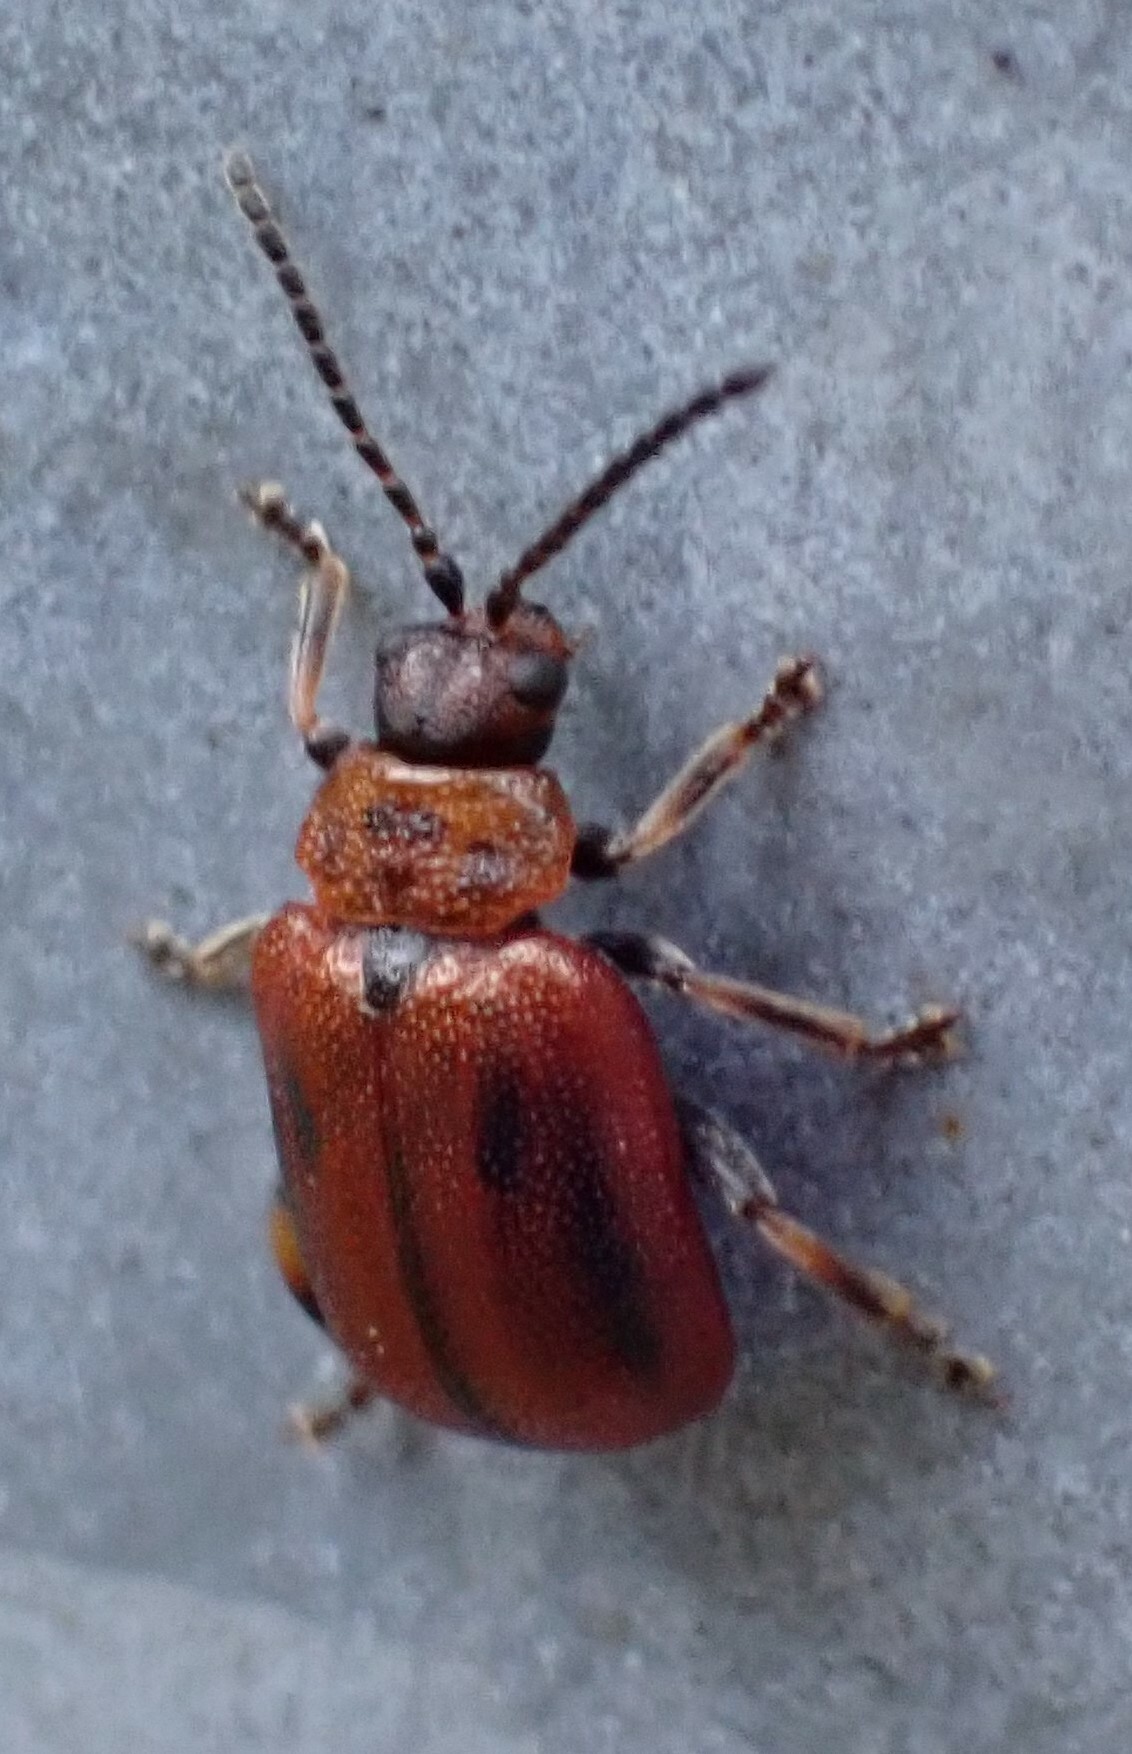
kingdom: Animalia
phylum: Arthropoda
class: Insecta
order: Coleoptera
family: Chrysomelidae
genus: Lochmaea
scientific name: Lochmaea crataegi
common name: Hawthorn leaf beetle
